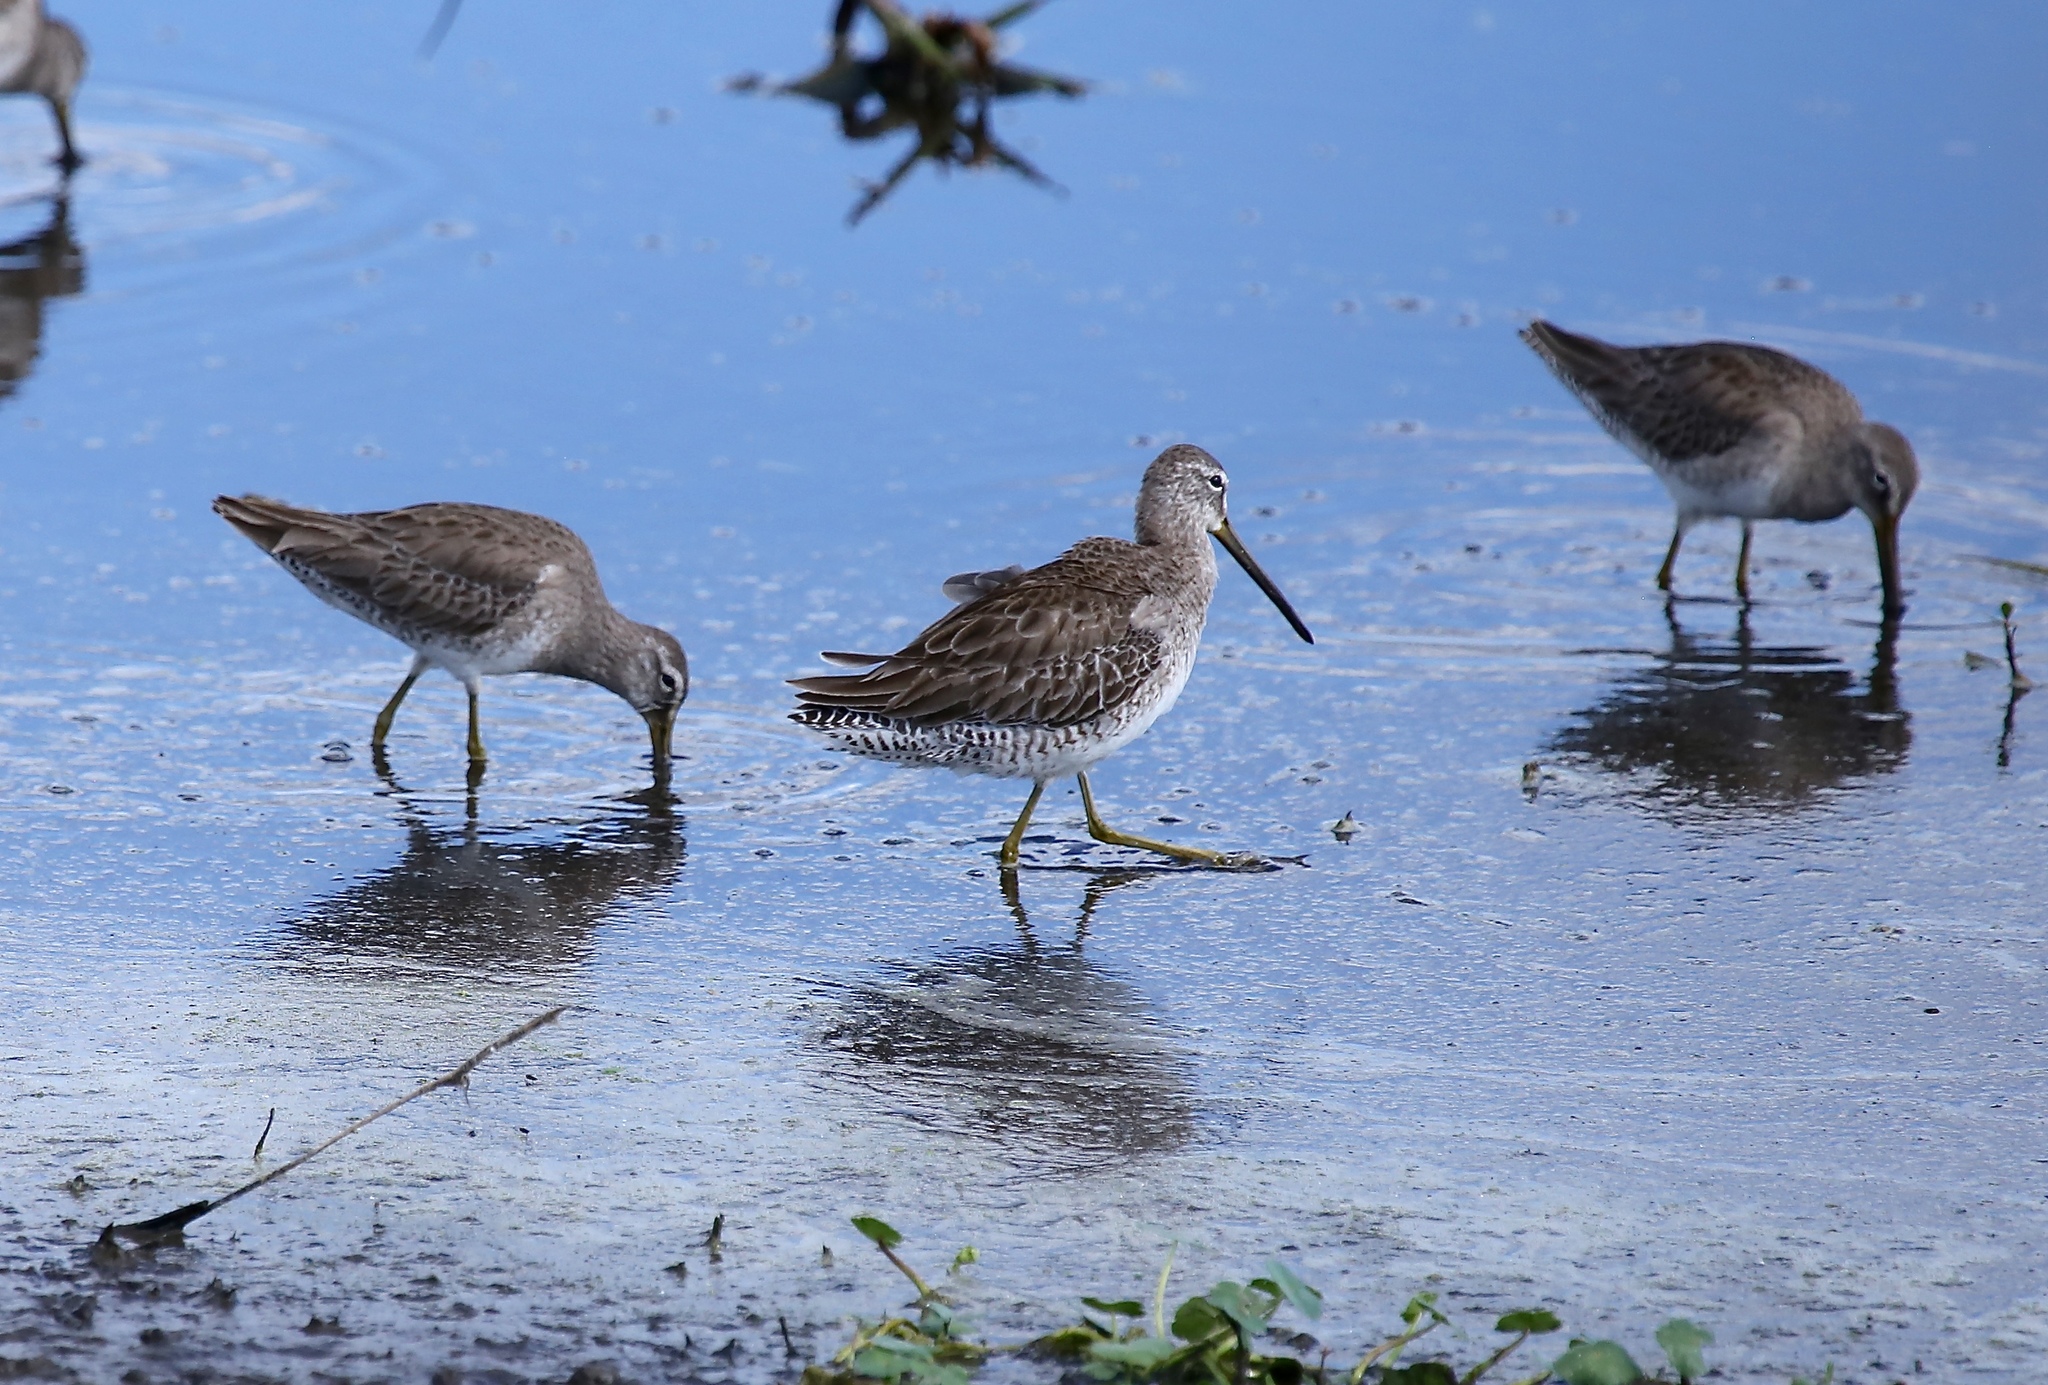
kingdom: Animalia
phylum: Chordata
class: Aves
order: Charadriiformes
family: Scolopacidae
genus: Limnodromus
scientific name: Limnodromus scolopaceus
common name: Long-billed dowitcher
